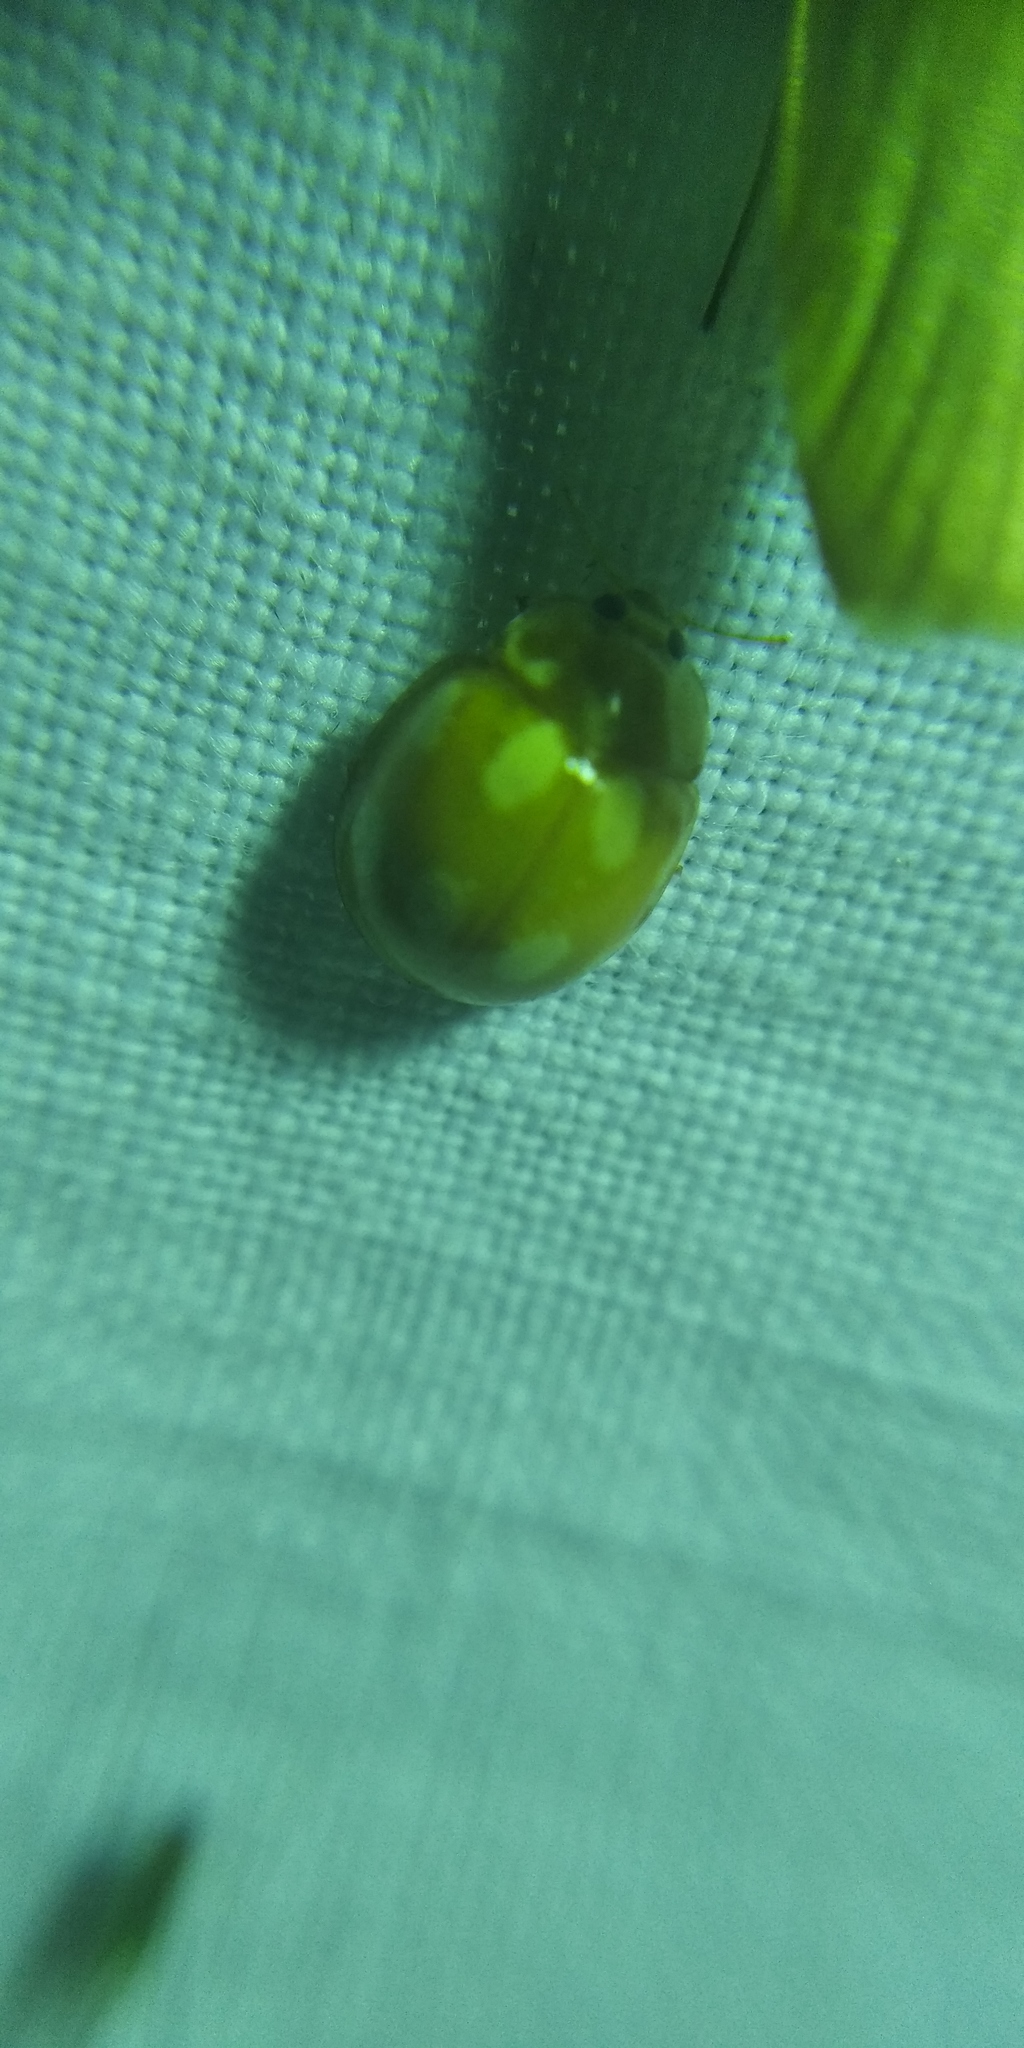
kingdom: Animalia
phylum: Arthropoda
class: Insecta
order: Coleoptera
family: Coccinellidae
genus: Calvia
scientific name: Calvia decemguttata
